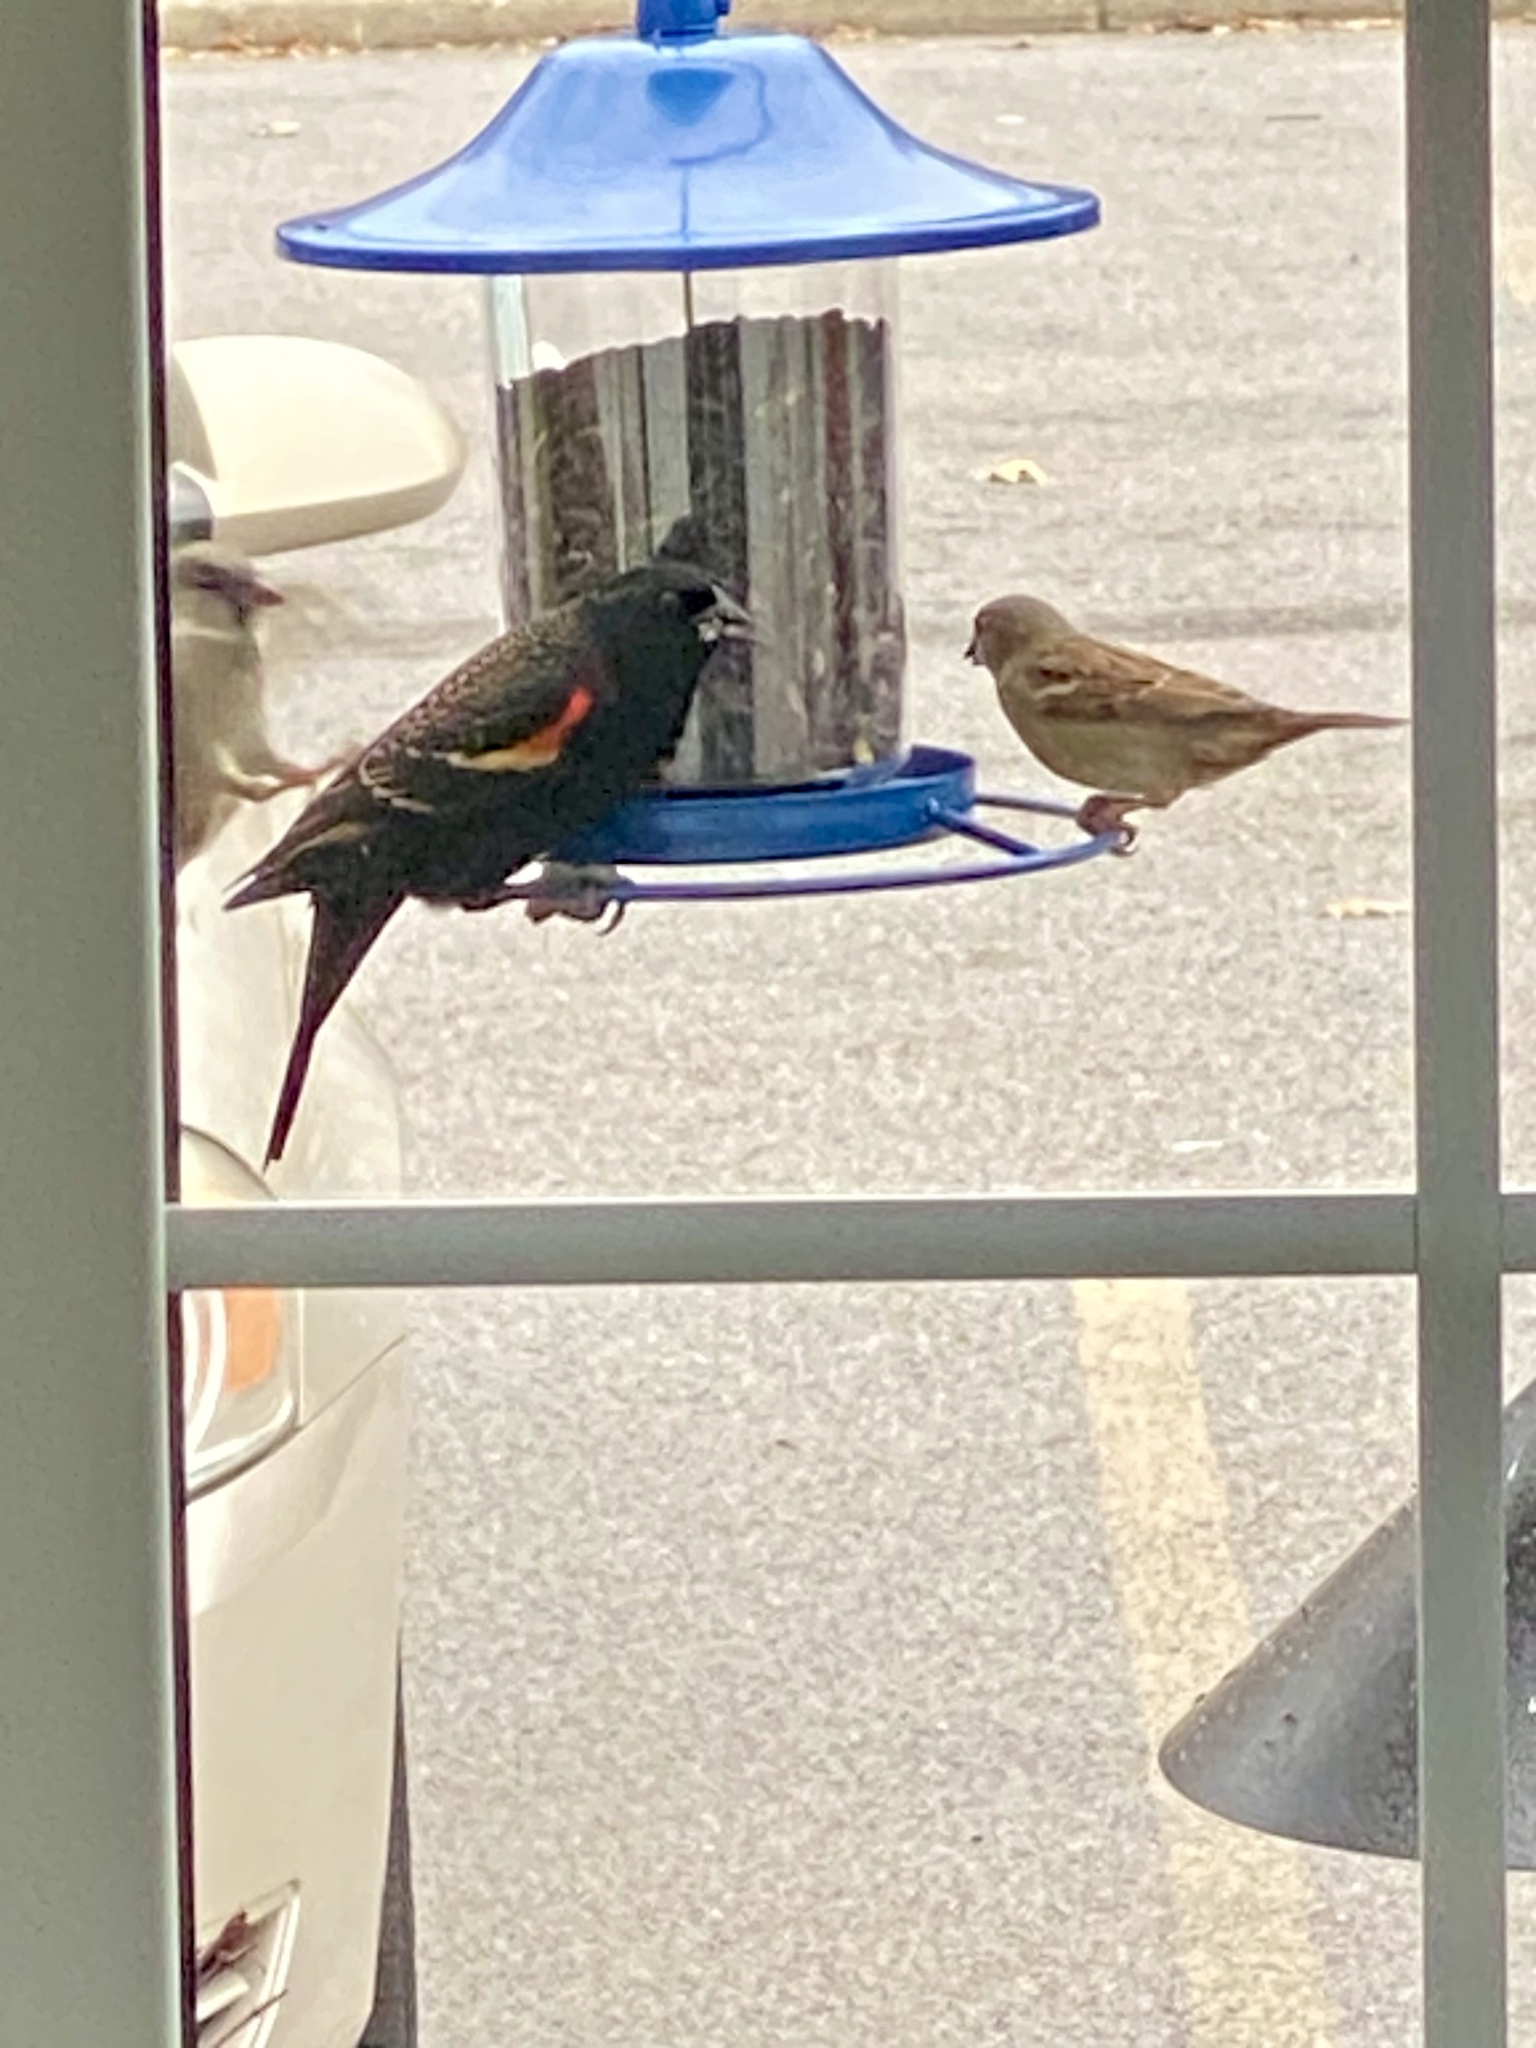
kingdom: Animalia
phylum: Chordata
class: Aves
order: Passeriformes
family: Icteridae
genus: Agelaius
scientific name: Agelaius phoeniceus
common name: Red-winged blackbird
